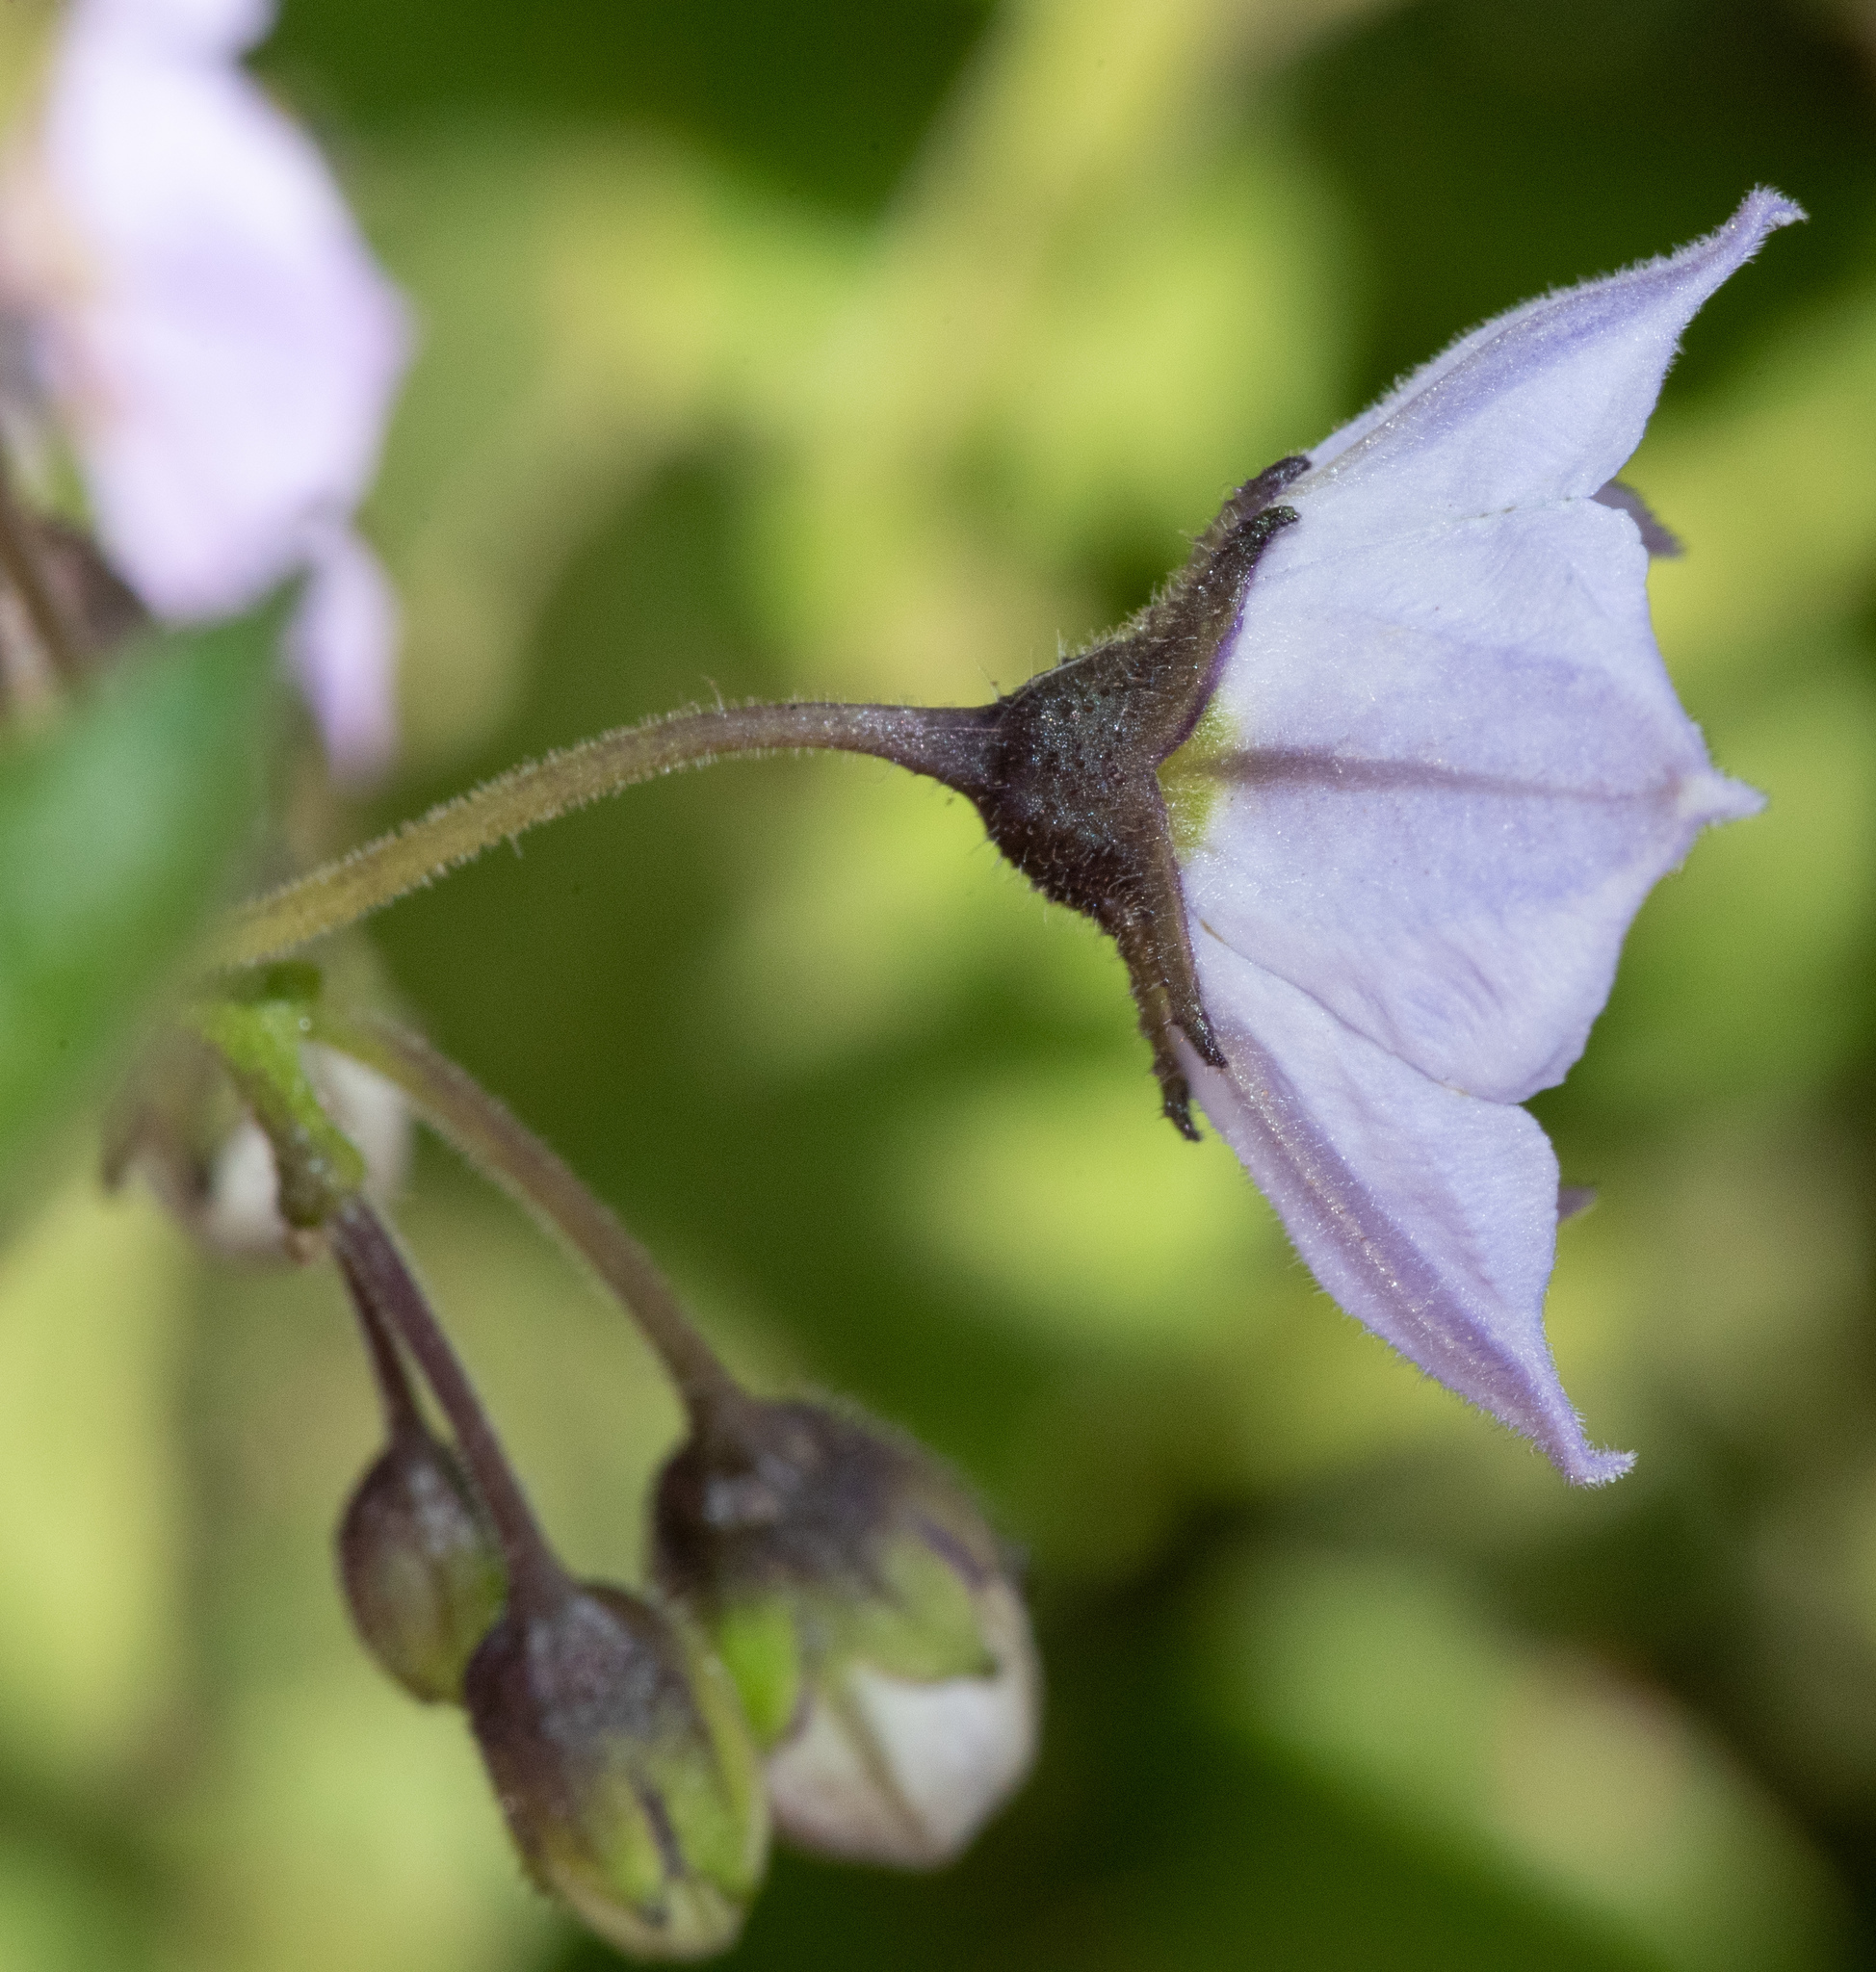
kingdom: Plantae
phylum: Tracheophyta
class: Magnoliopsida
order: Solanales
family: Solanaceae
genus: Solanum
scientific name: Solanum umbelliferum
